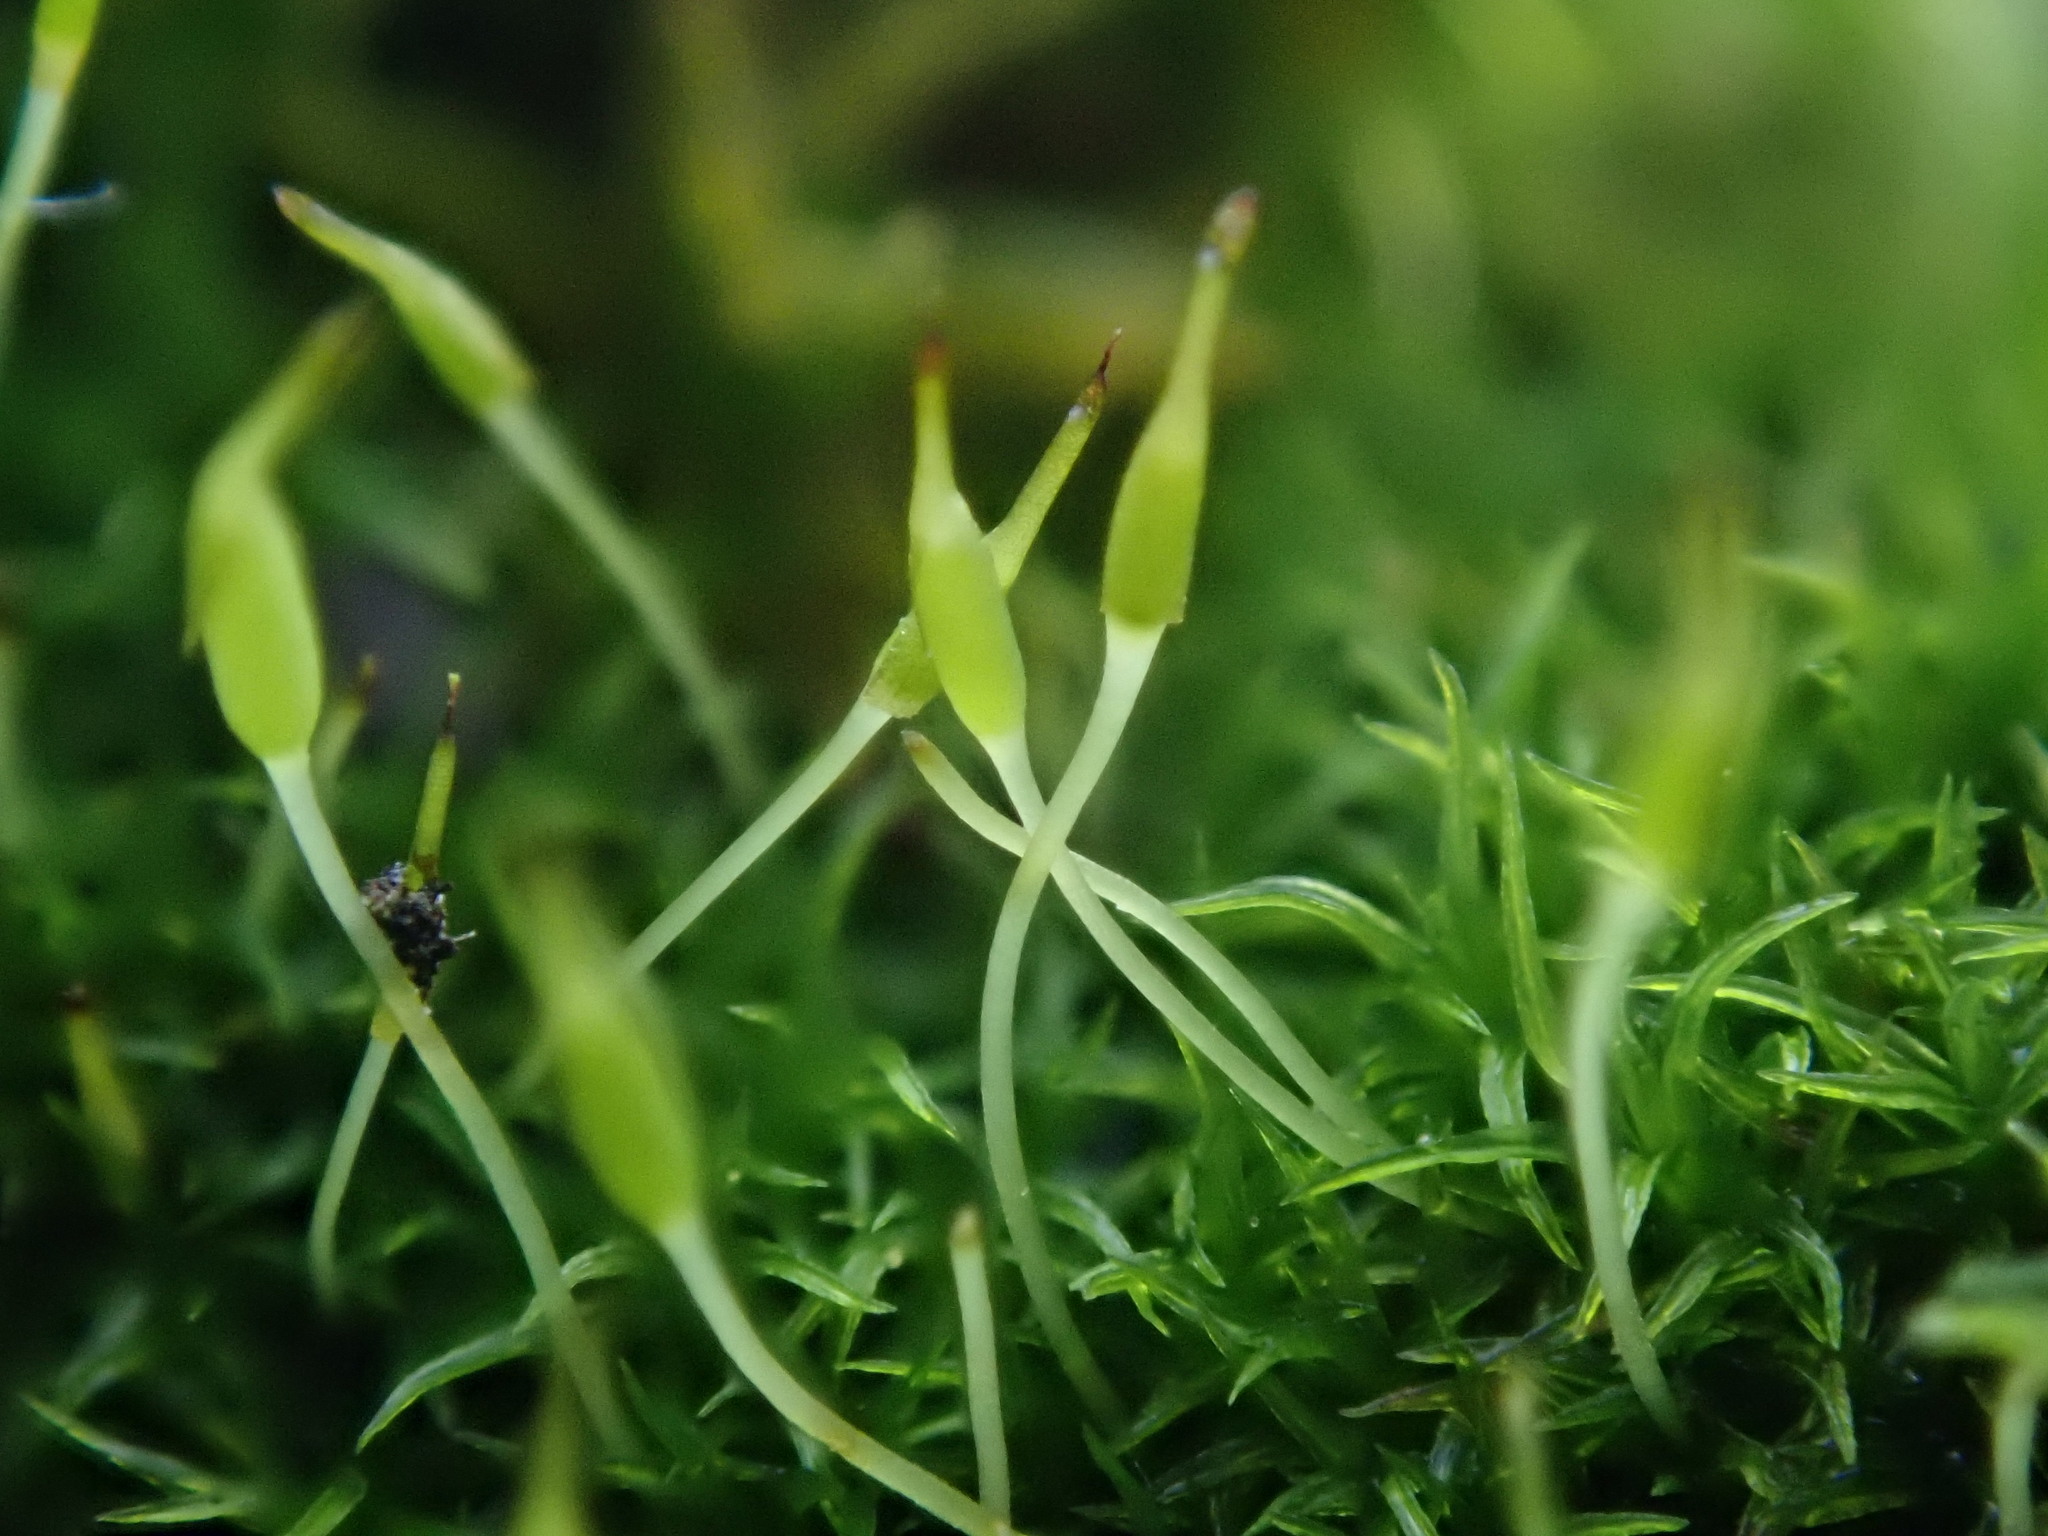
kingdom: Plantae
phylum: Bryophyta
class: Bryopsida
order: Dicranales
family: Rhabdoweisiaceae
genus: Dicranoweisia
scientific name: Dicranoweisia cirrata
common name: Common pincushion
